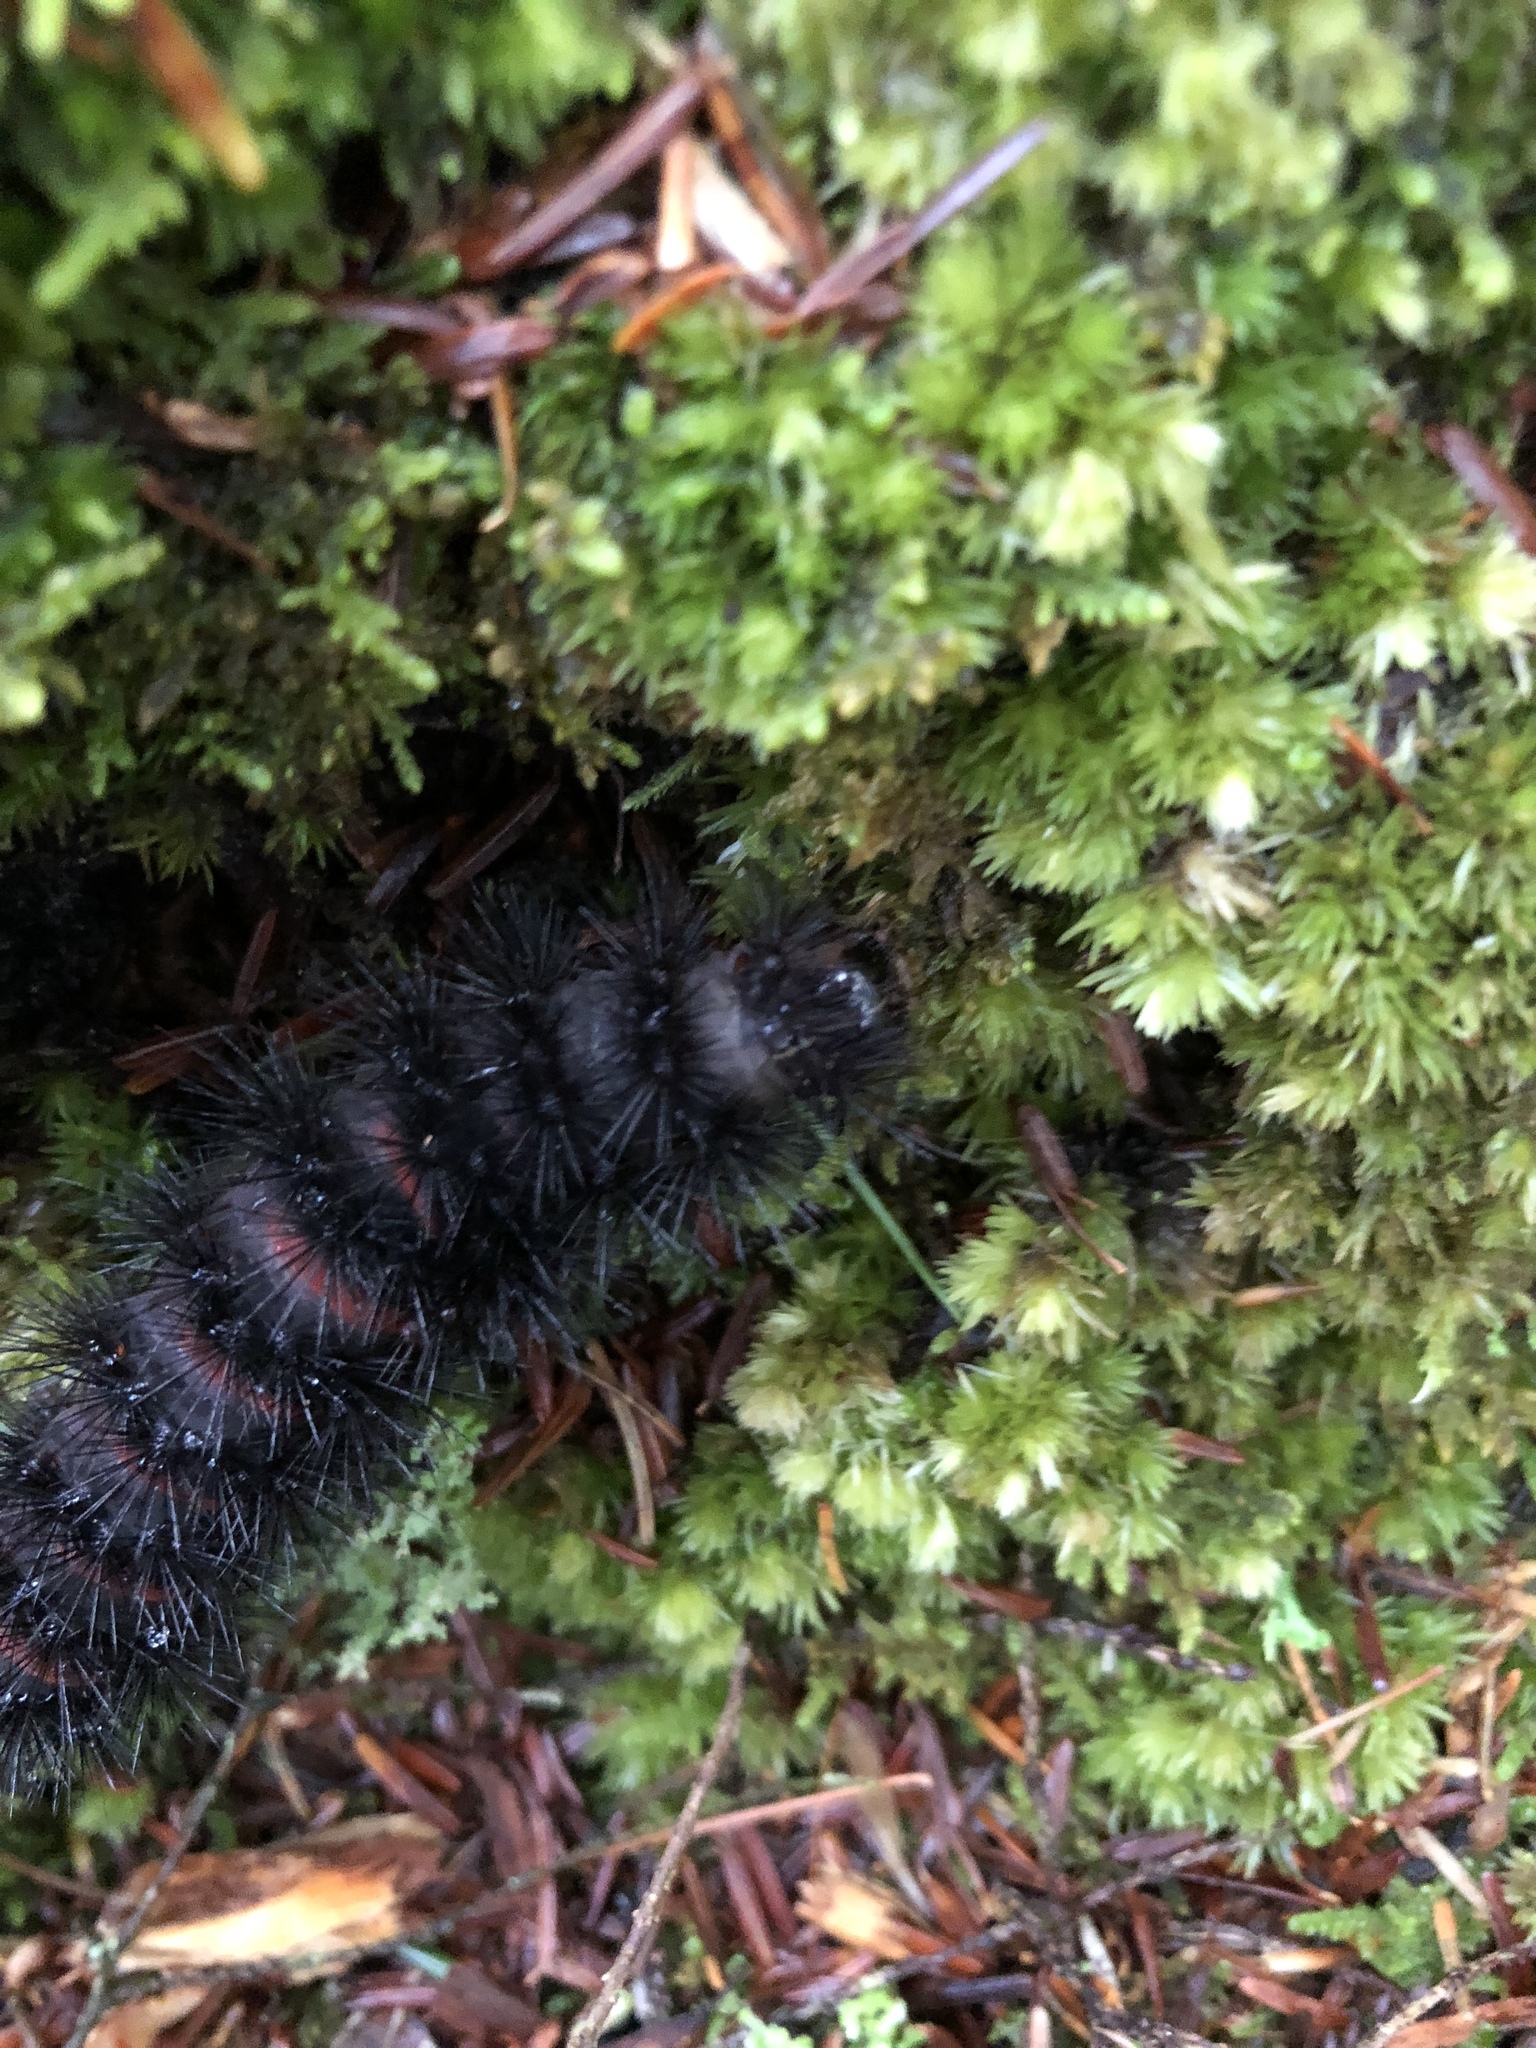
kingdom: Animalia
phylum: Arthropoda
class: Insecta
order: Lepidoptera
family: Erebidae
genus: Hypercompe
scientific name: Hypercompe scribonia
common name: Giant leopard moth
